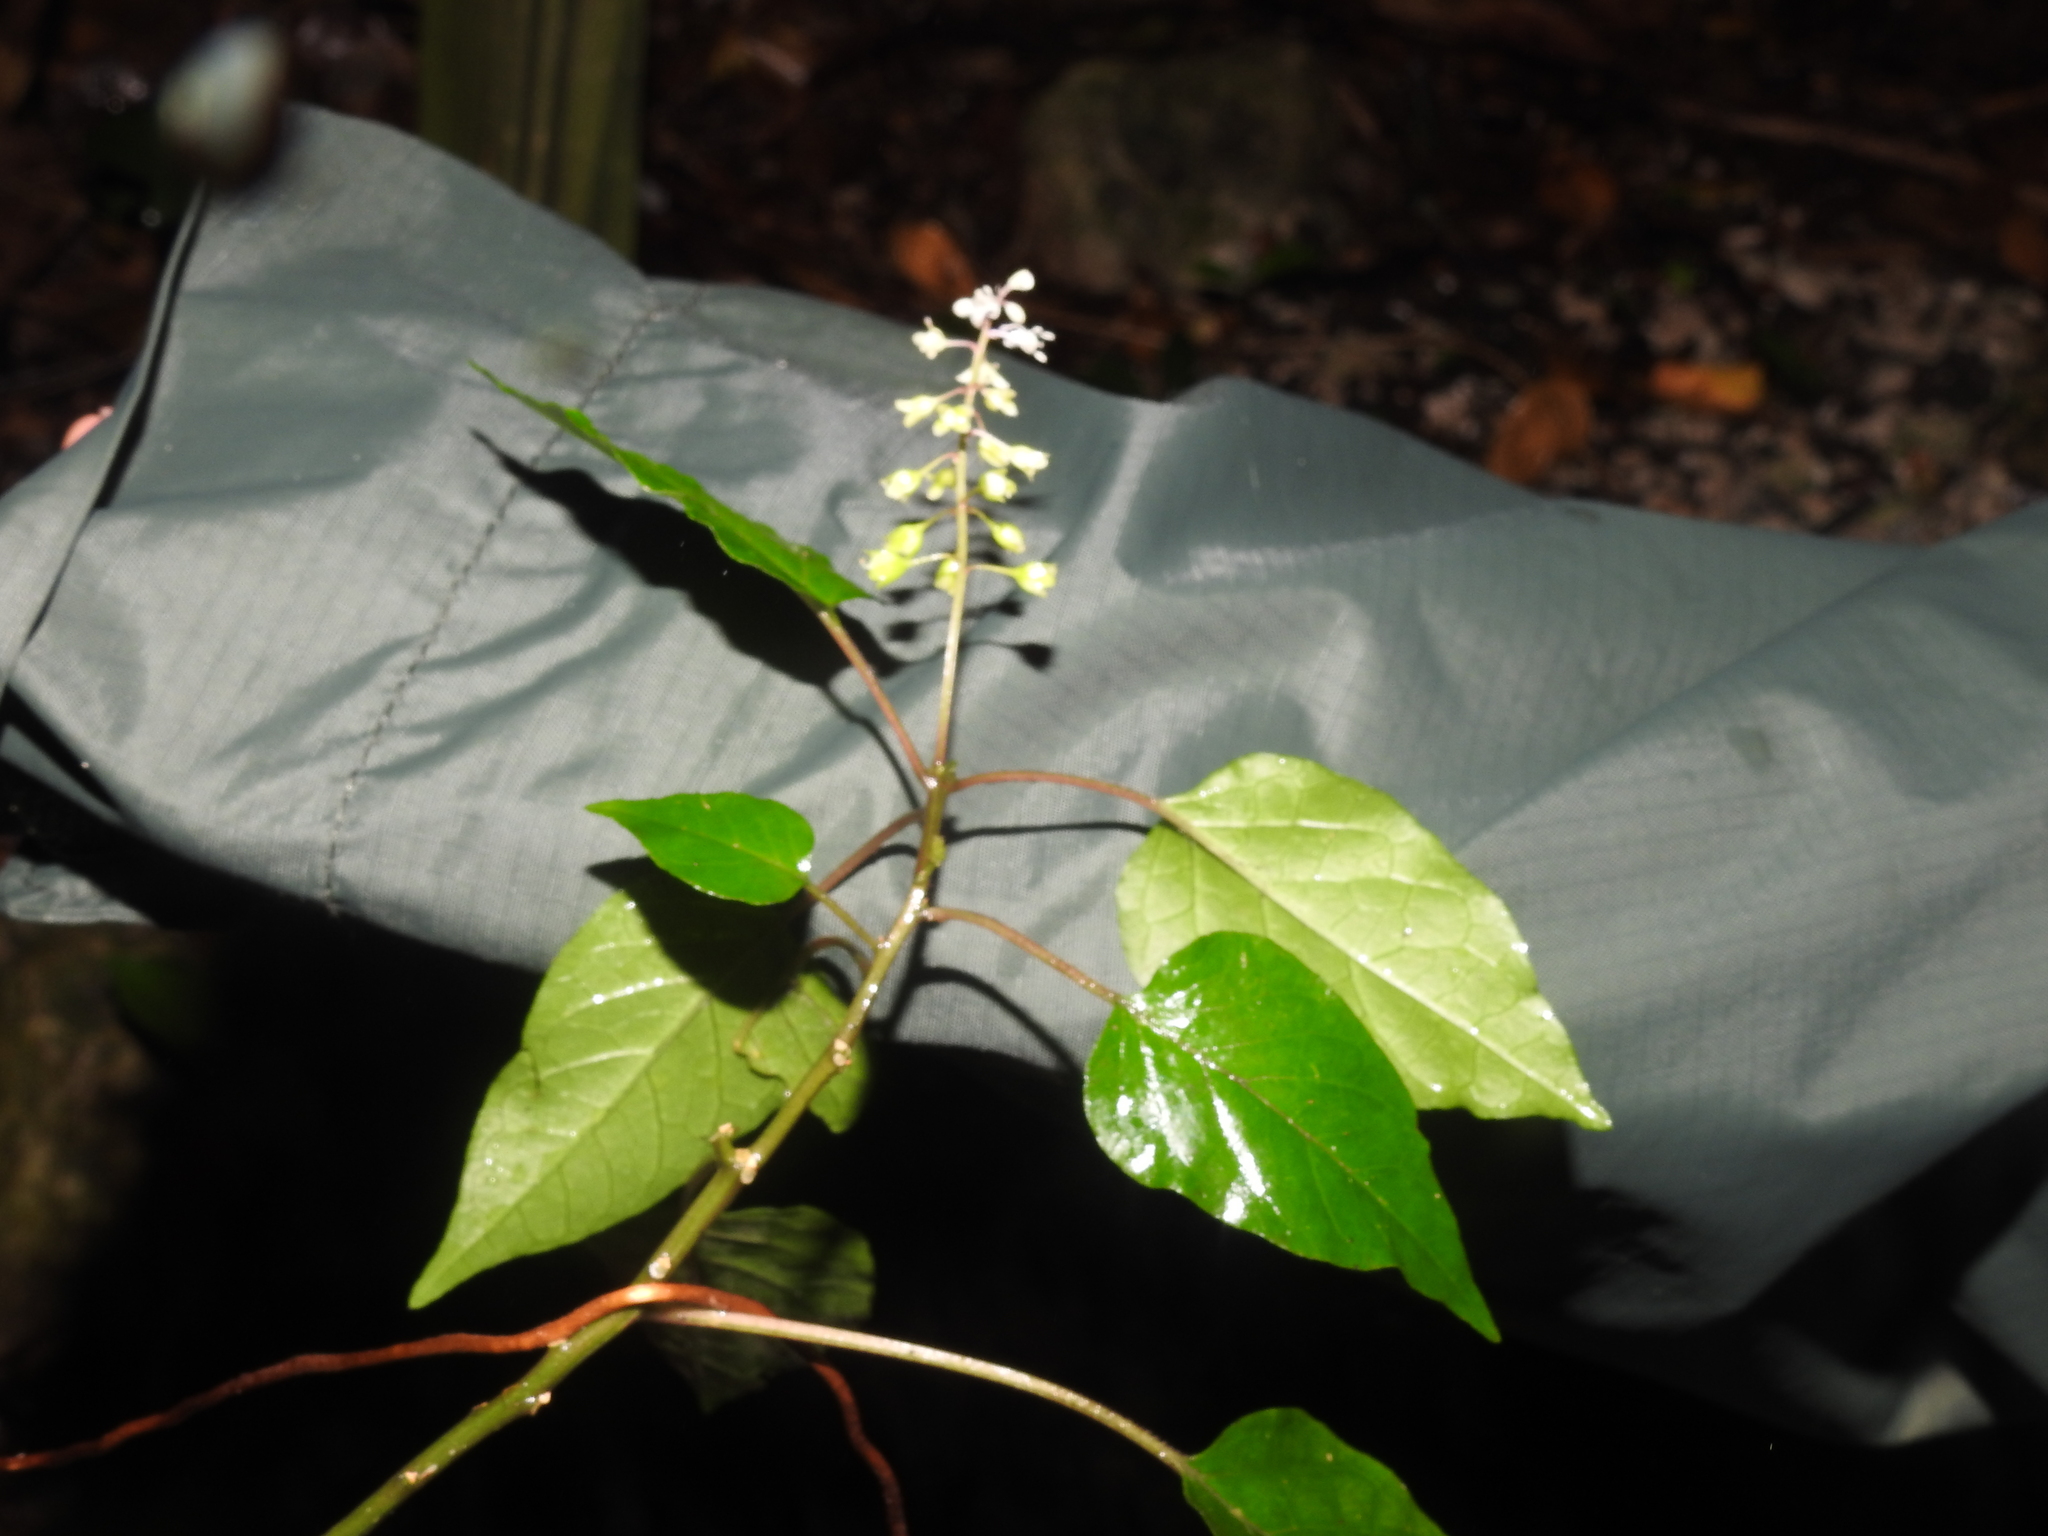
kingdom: Plantae
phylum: Tracheophyta
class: Magnoliopsida
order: Caryophyllales
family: Phytolaccaceae
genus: Rivina
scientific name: Rivina humilis
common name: Rougeplant
